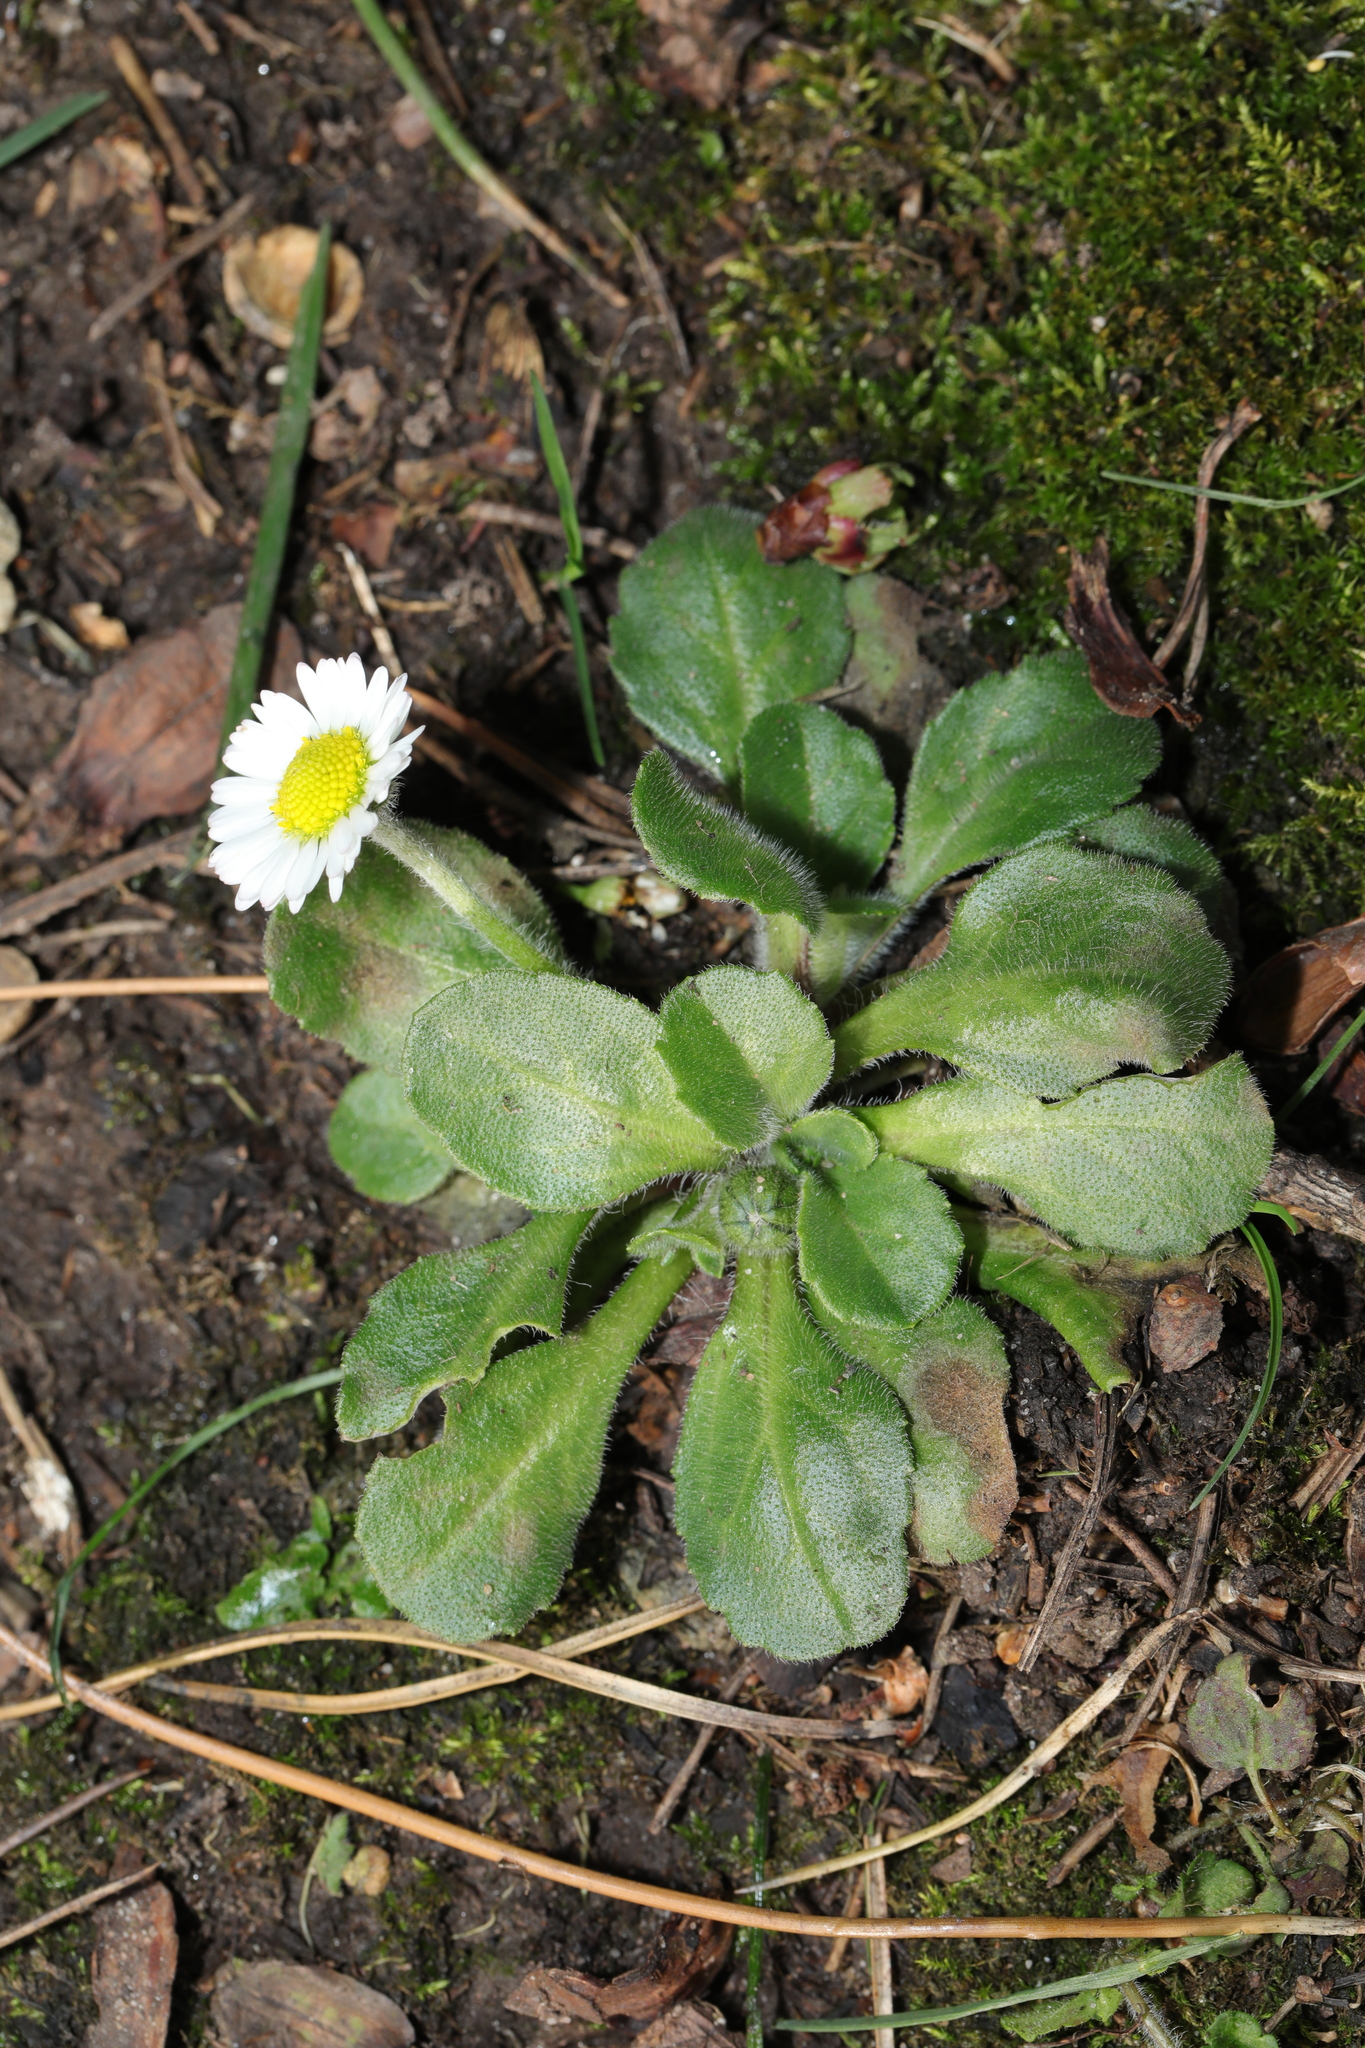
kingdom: Plantae
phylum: Tracheophyta
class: Magnoliopsida
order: Asterales
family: Asteraceae
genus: Bellis
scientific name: Bellis perennis
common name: Lawndaisy
